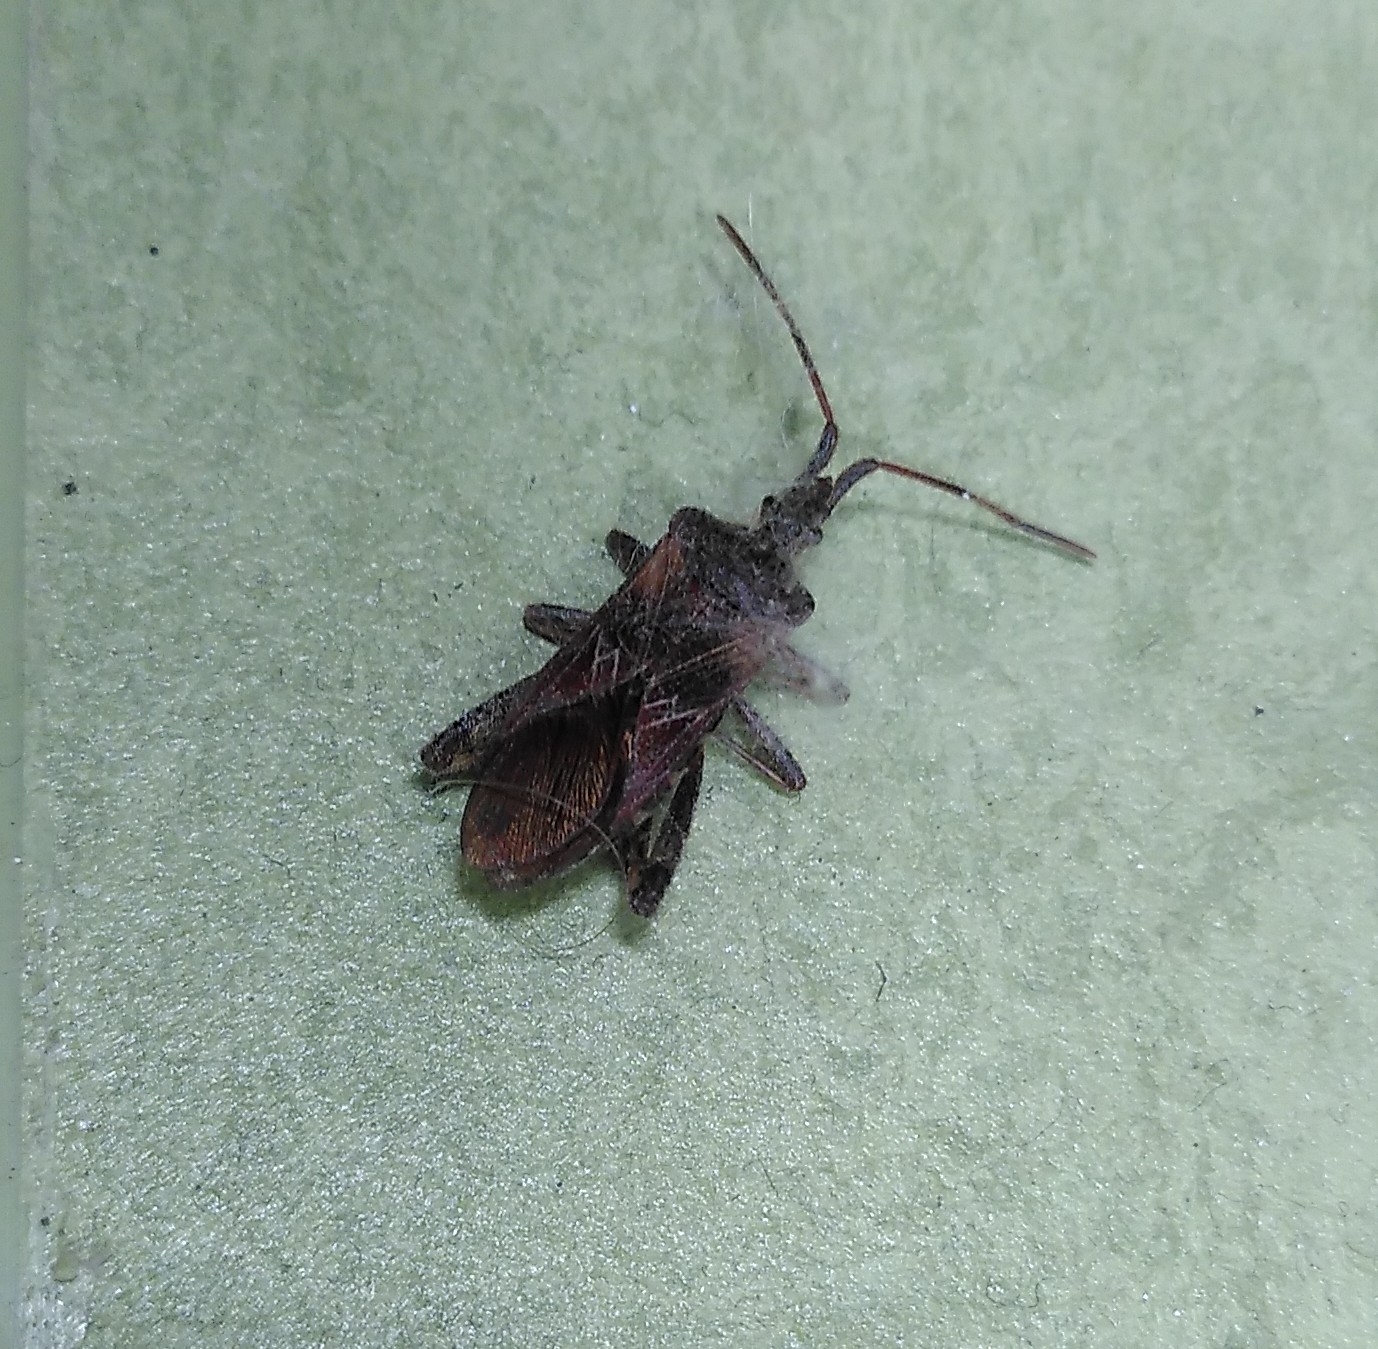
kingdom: Animalia
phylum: Arthropoda
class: Insecta
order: Hemiptera
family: Coreidae
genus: Leptoglossus
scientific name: Leptoglossus occidentalis
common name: Western conifer-seed bug
